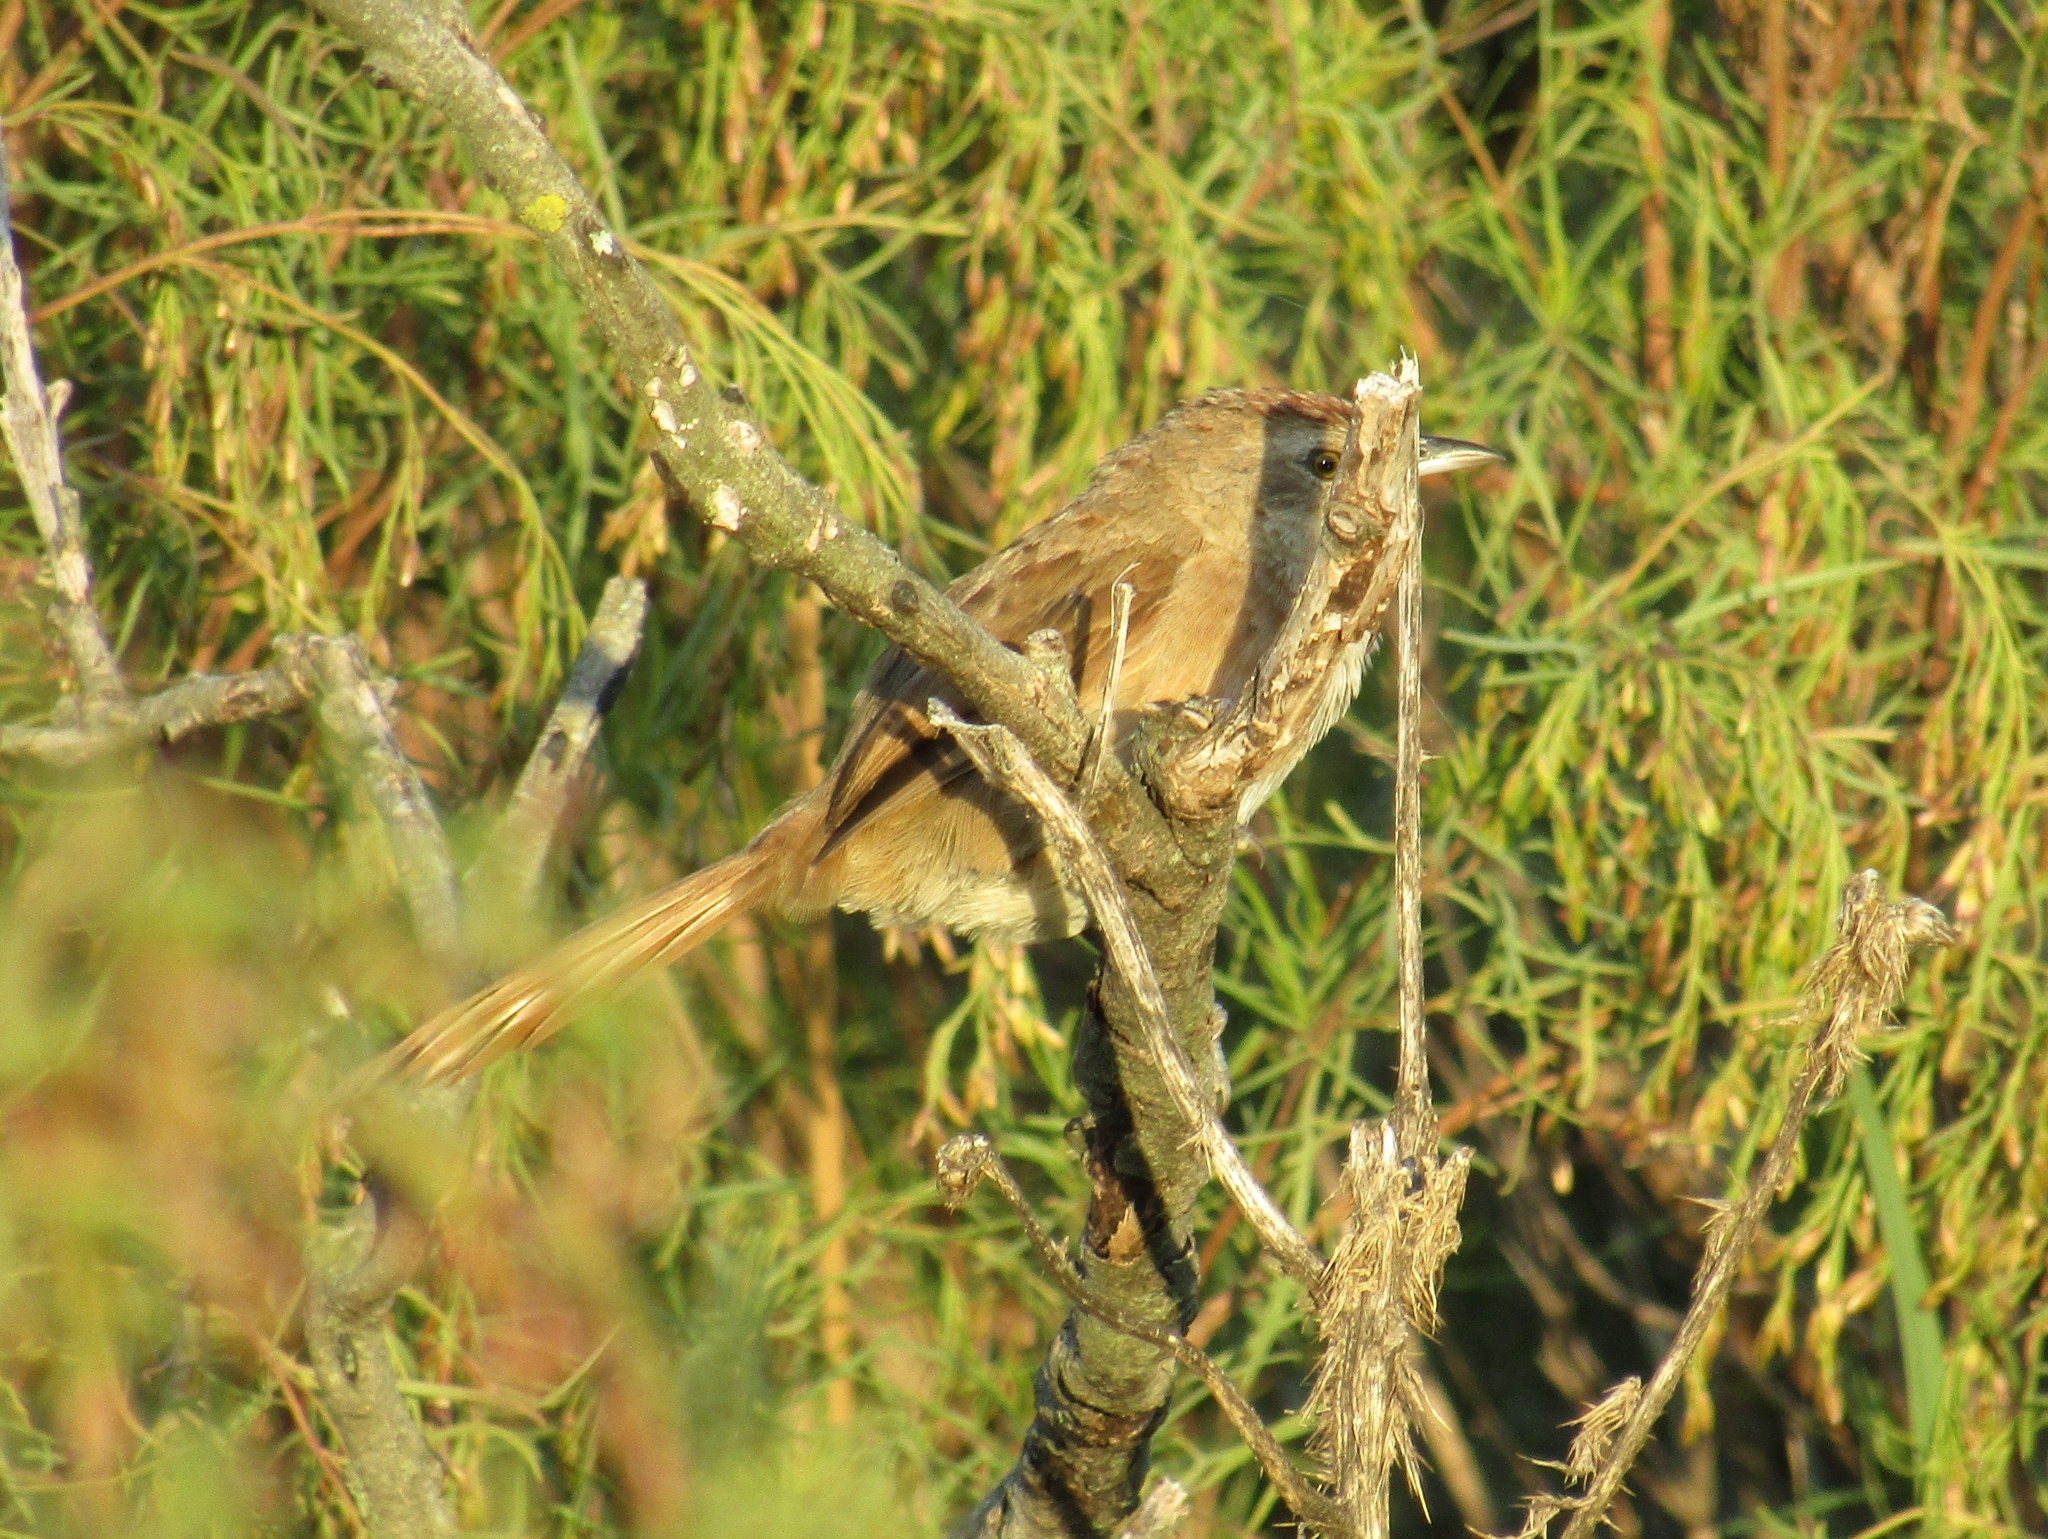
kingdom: Animalia
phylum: Chordata
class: Aves
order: Passeriformes
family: Furnariidae
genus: Phacellodomus
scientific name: Phacellodomus striaticollis
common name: Freckle-breasted thornbird
